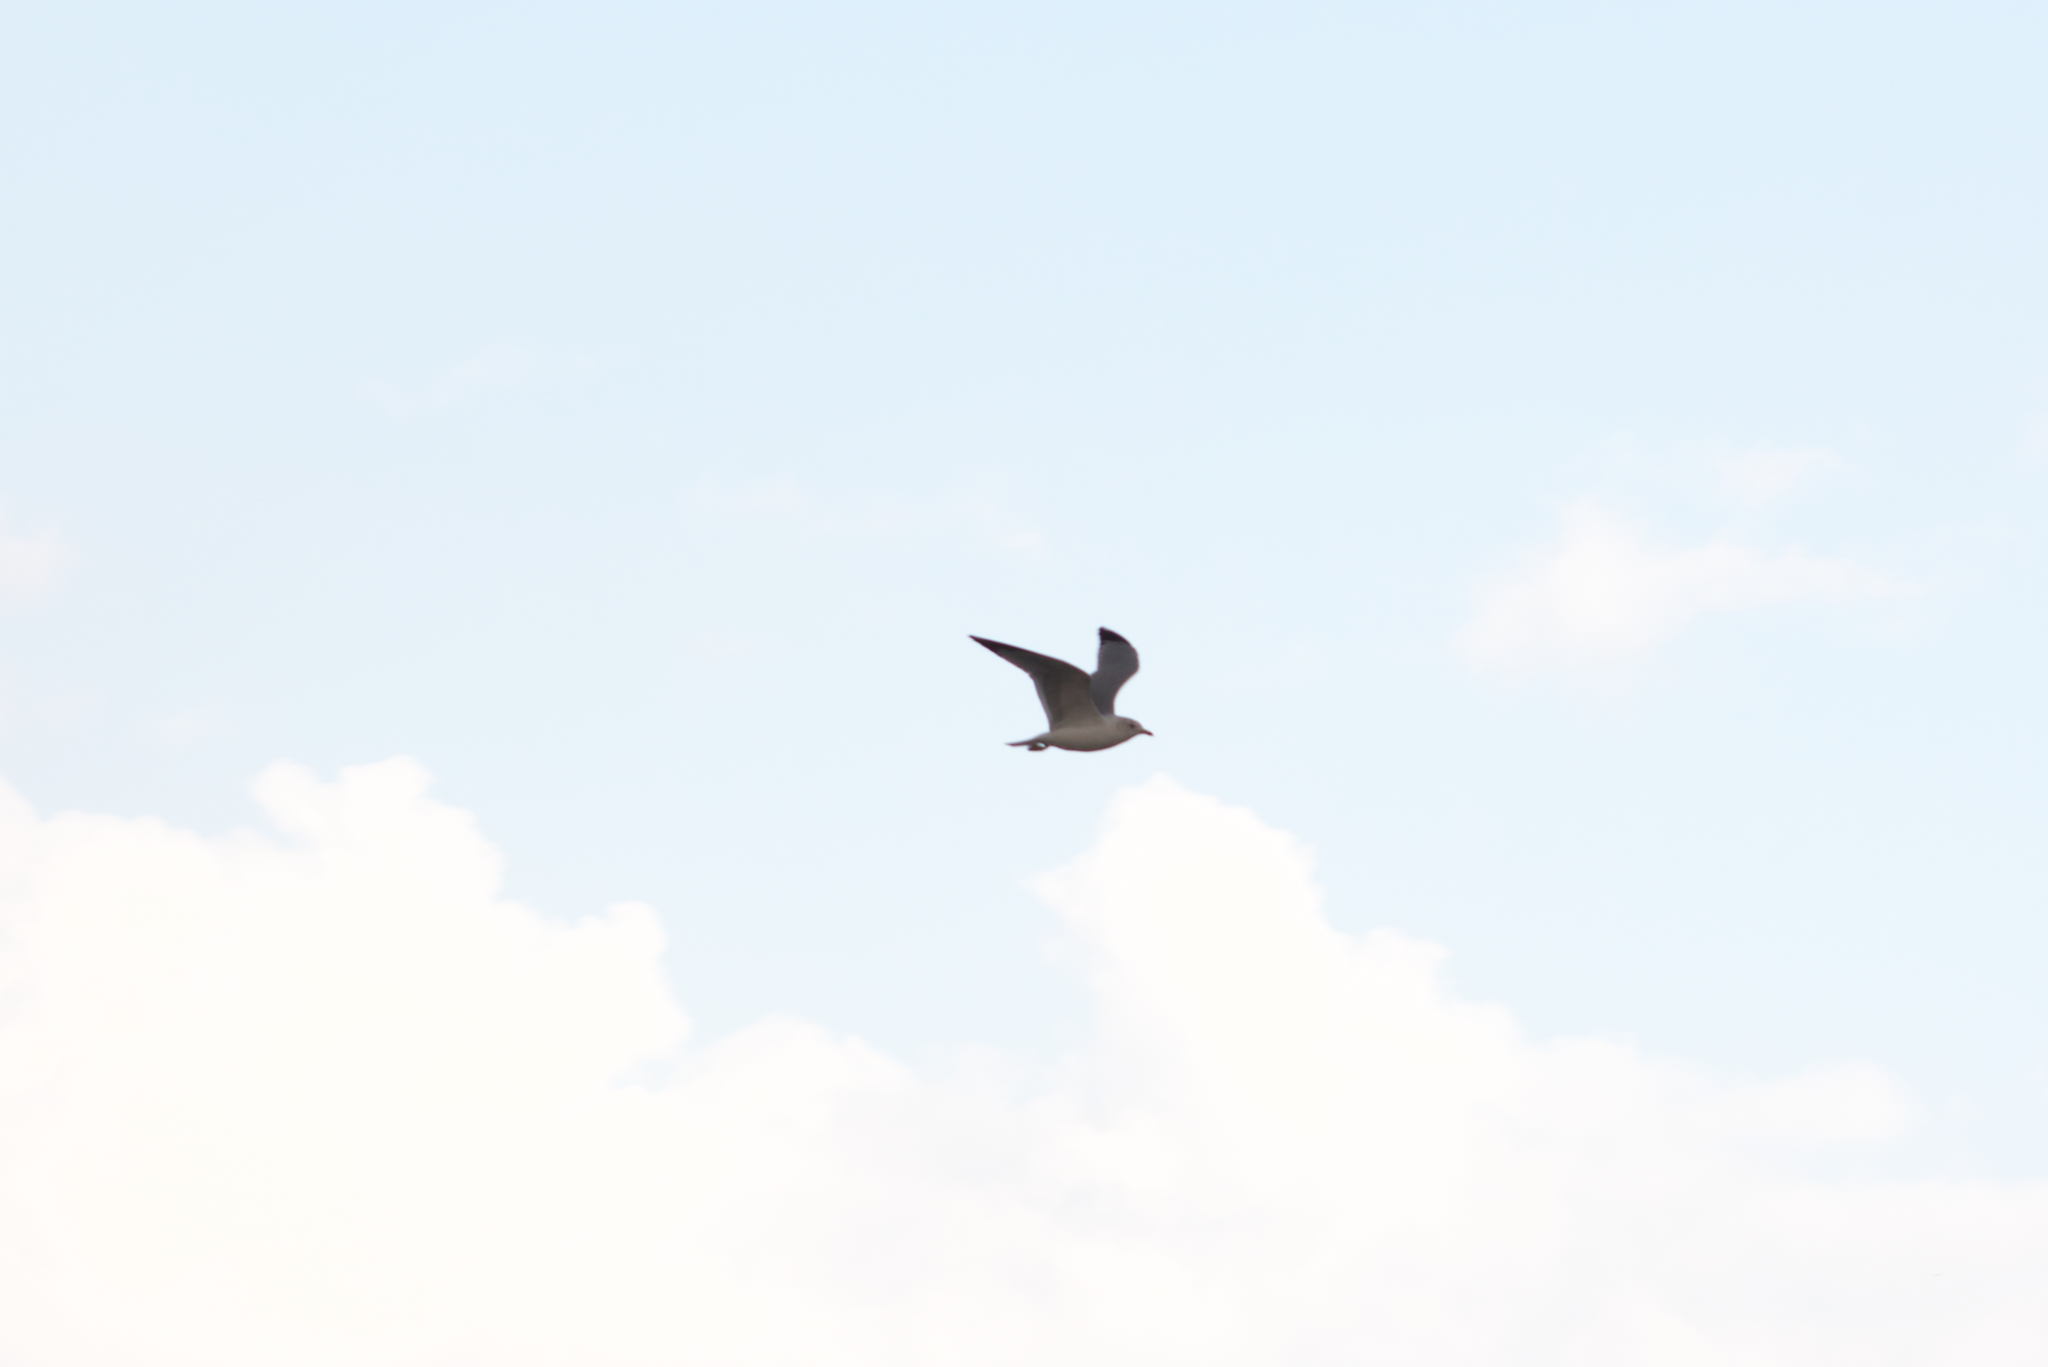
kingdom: Animalia
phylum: Chordata
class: Aves
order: Charadriiformes
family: Laridae
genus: Larus
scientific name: Larus delawarensis
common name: Ring-billed gull
